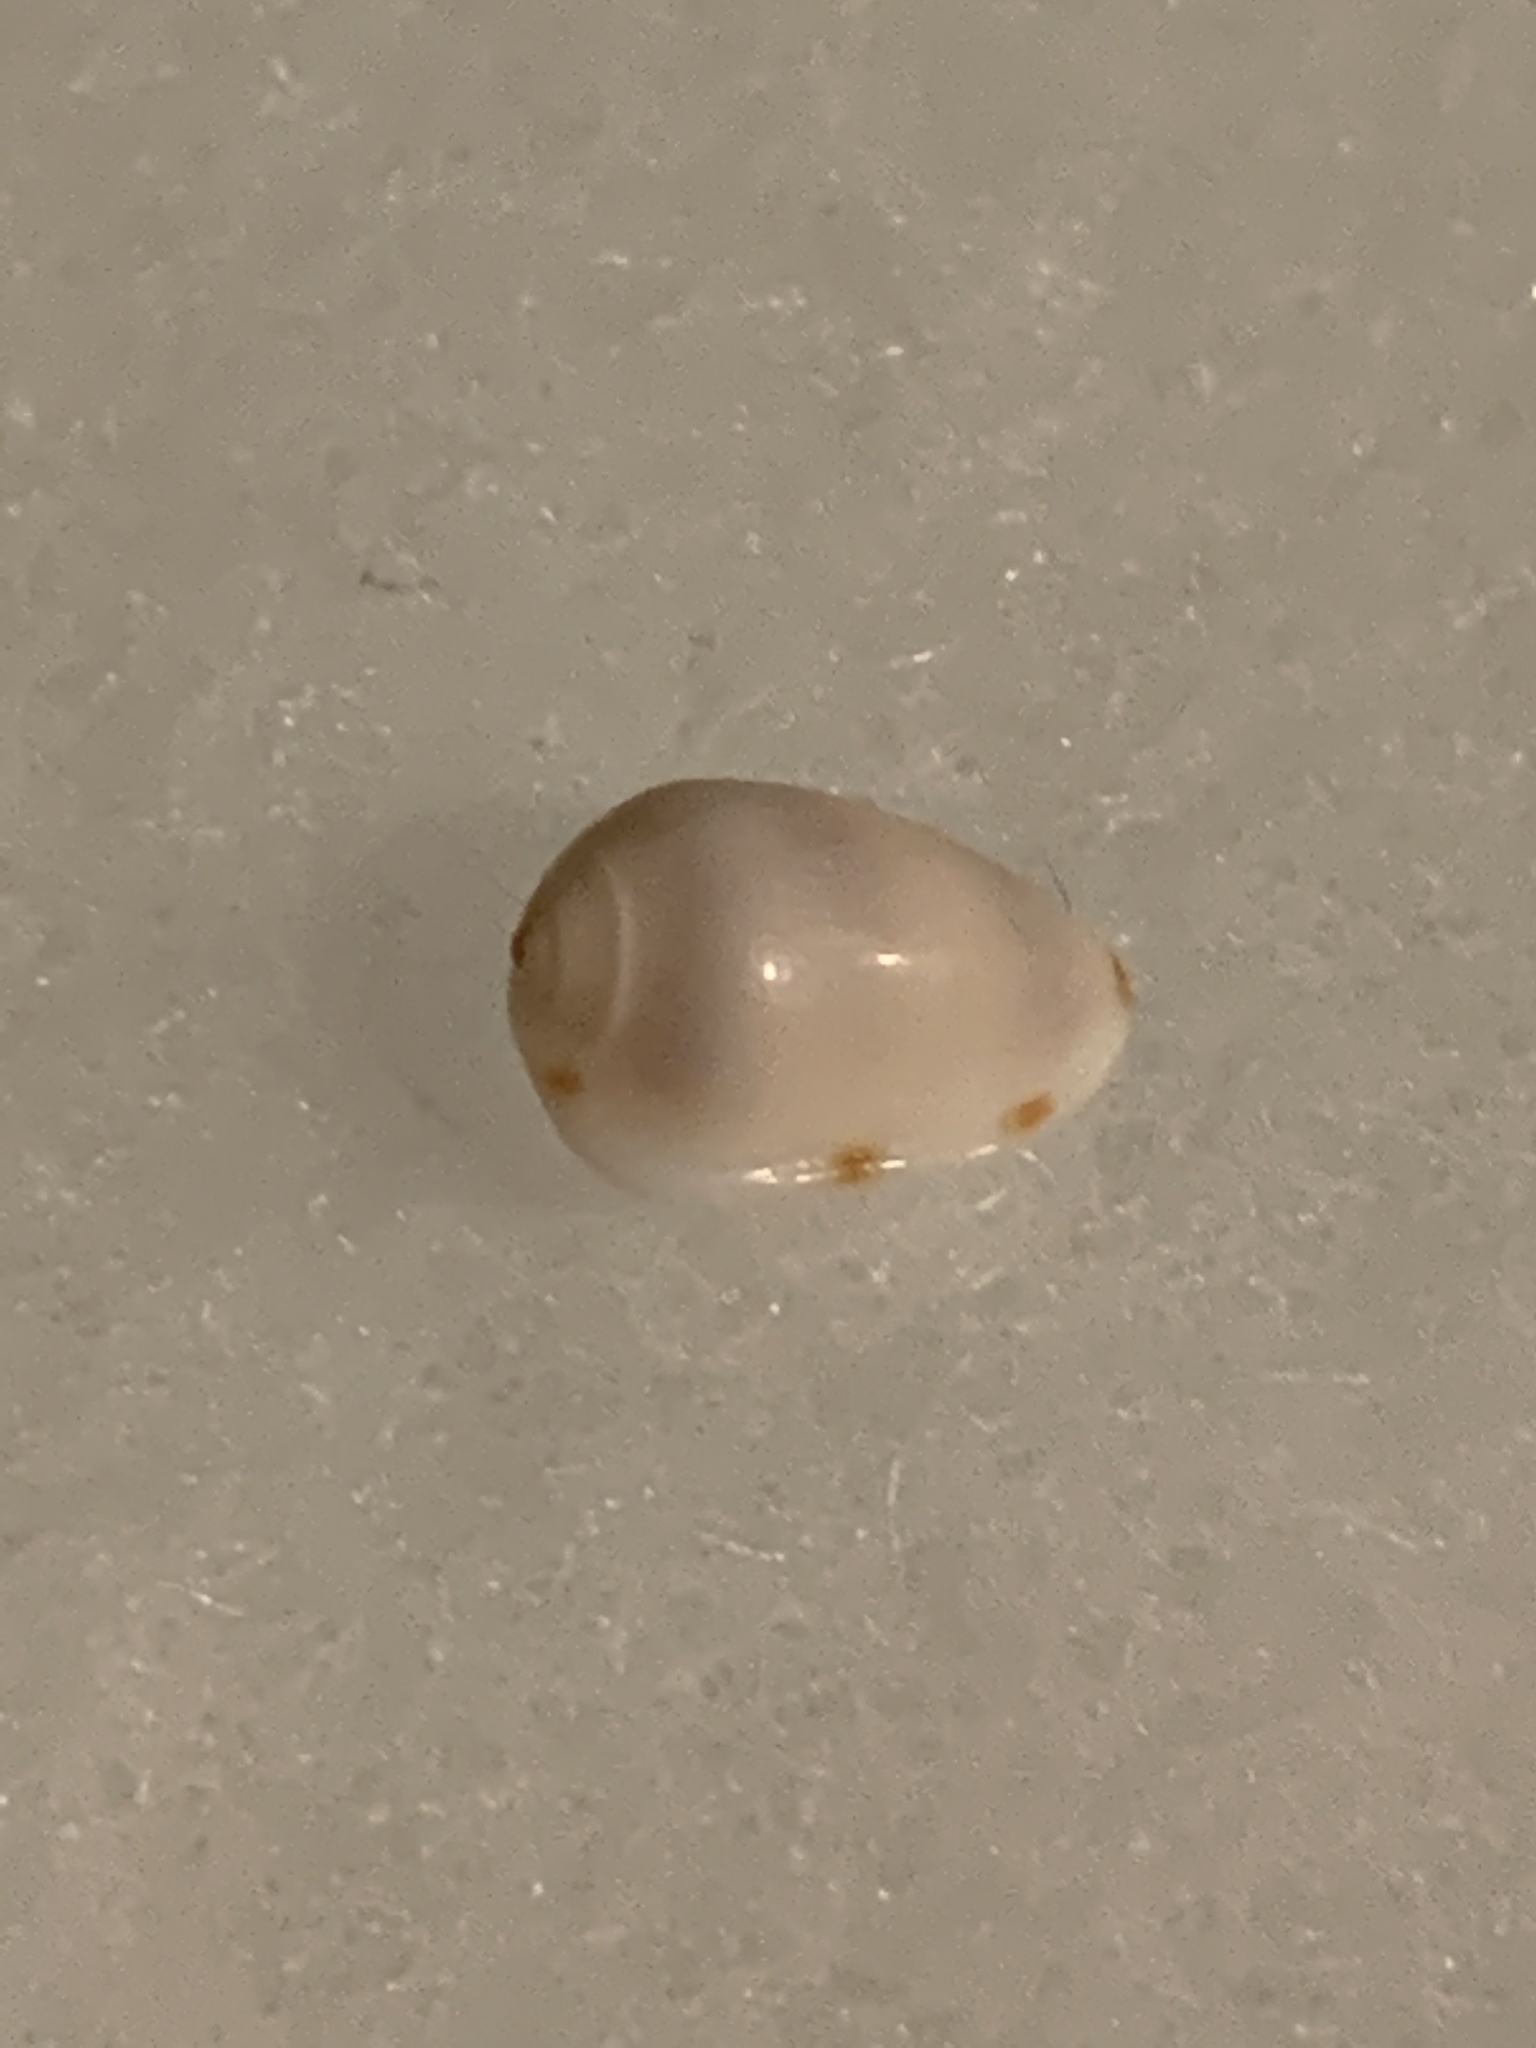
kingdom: Animalia
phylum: Mollusca
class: Gastropoda
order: Neogastropoda
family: Marginellidae
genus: Prunum
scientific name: Prunum apicinum
